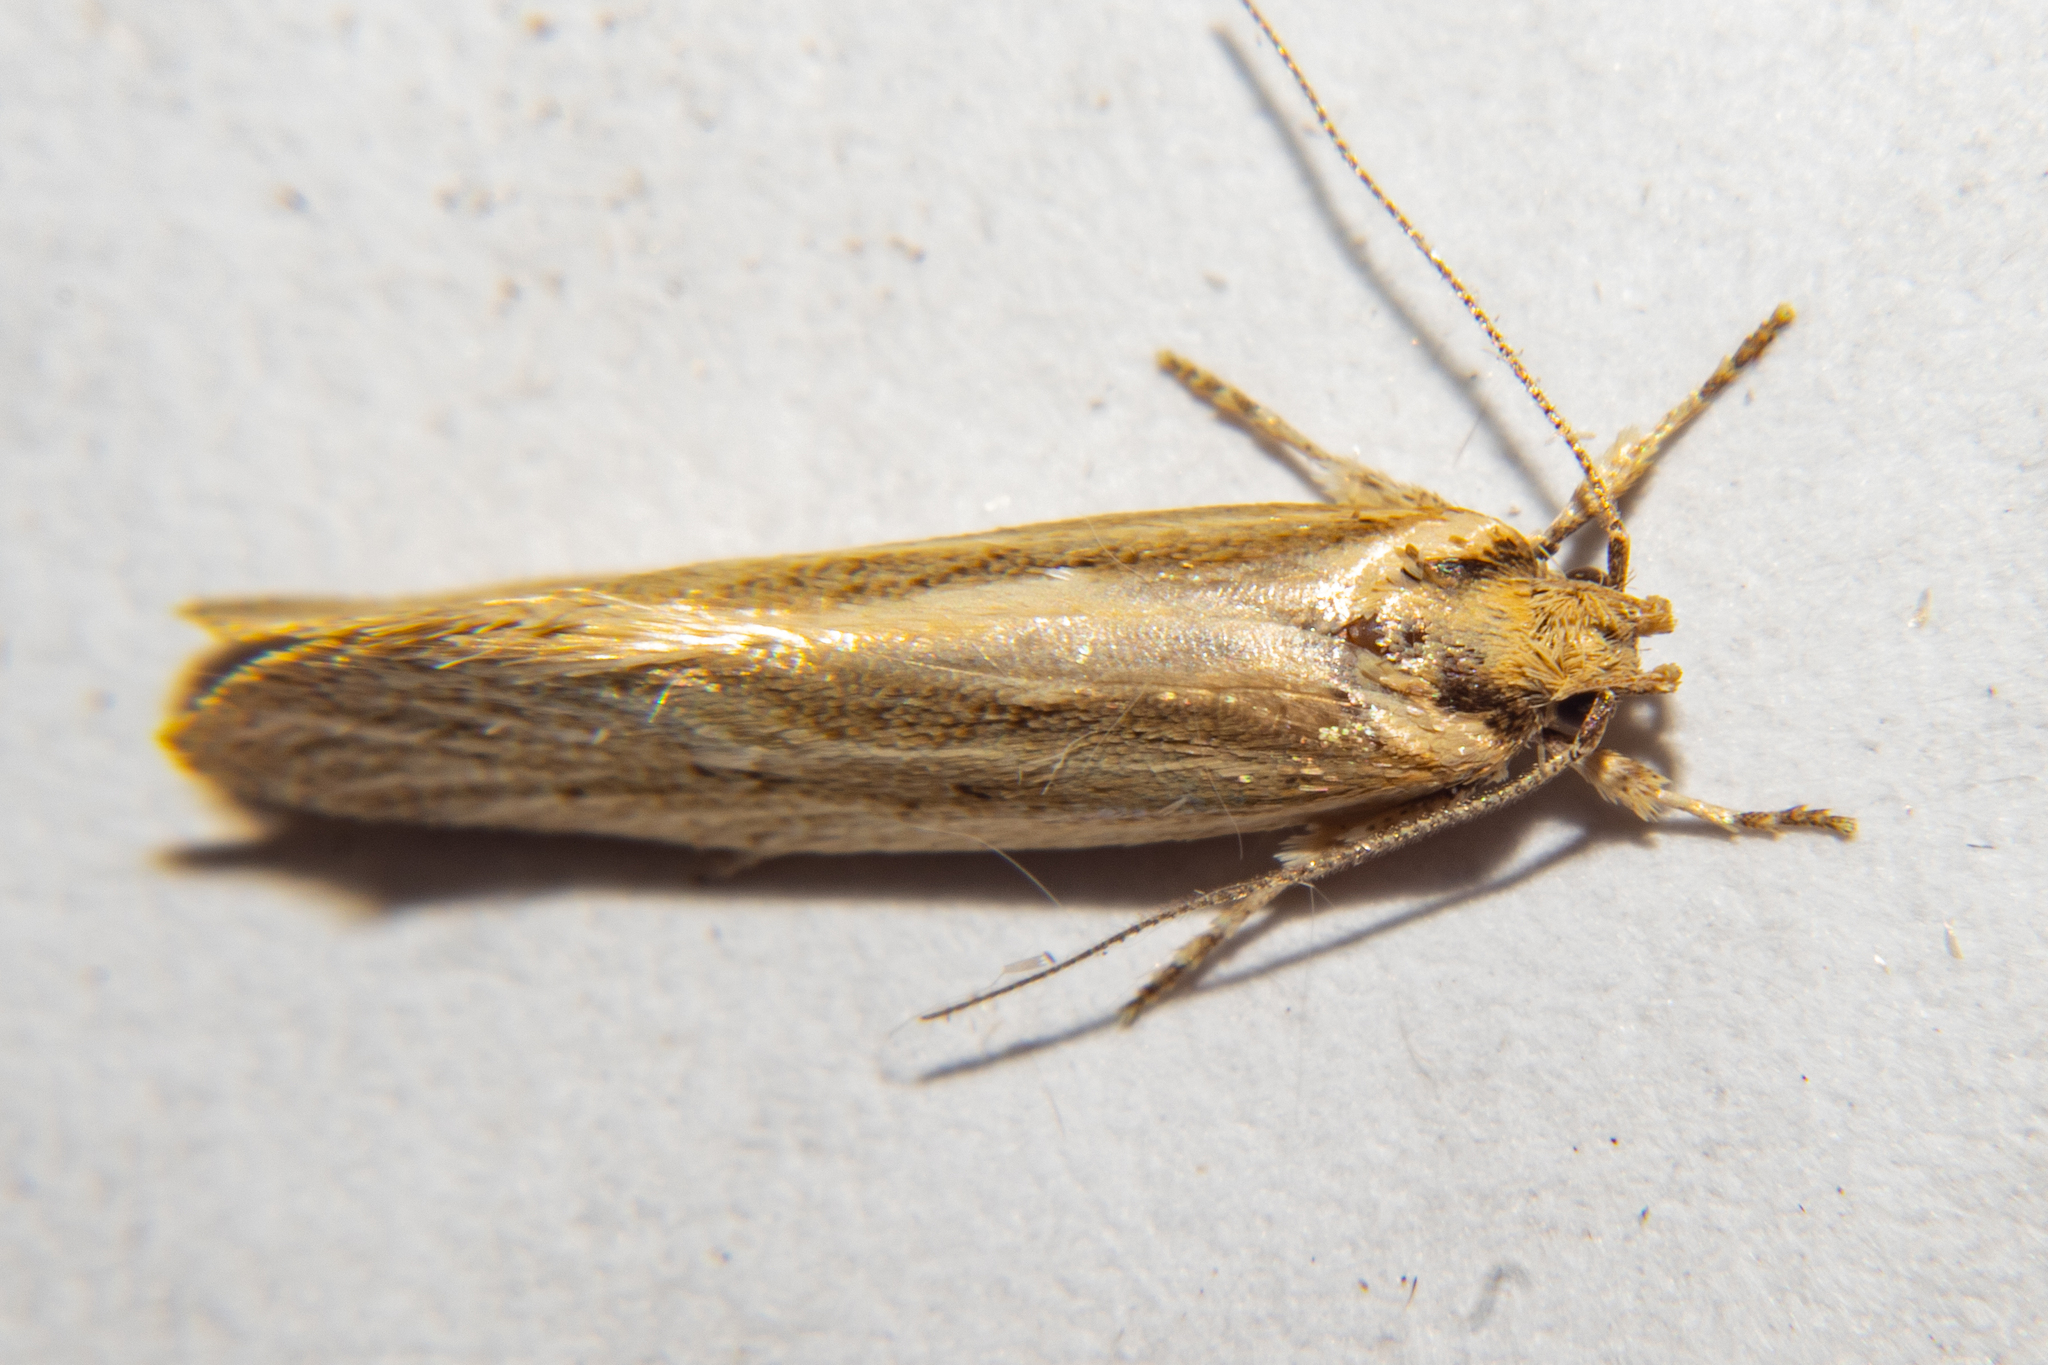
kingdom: Animalia
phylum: Arthropoda
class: Insecta
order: Lepidoptera
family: Oecophoridae
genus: Tingena
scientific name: Tingena chloradelpha
